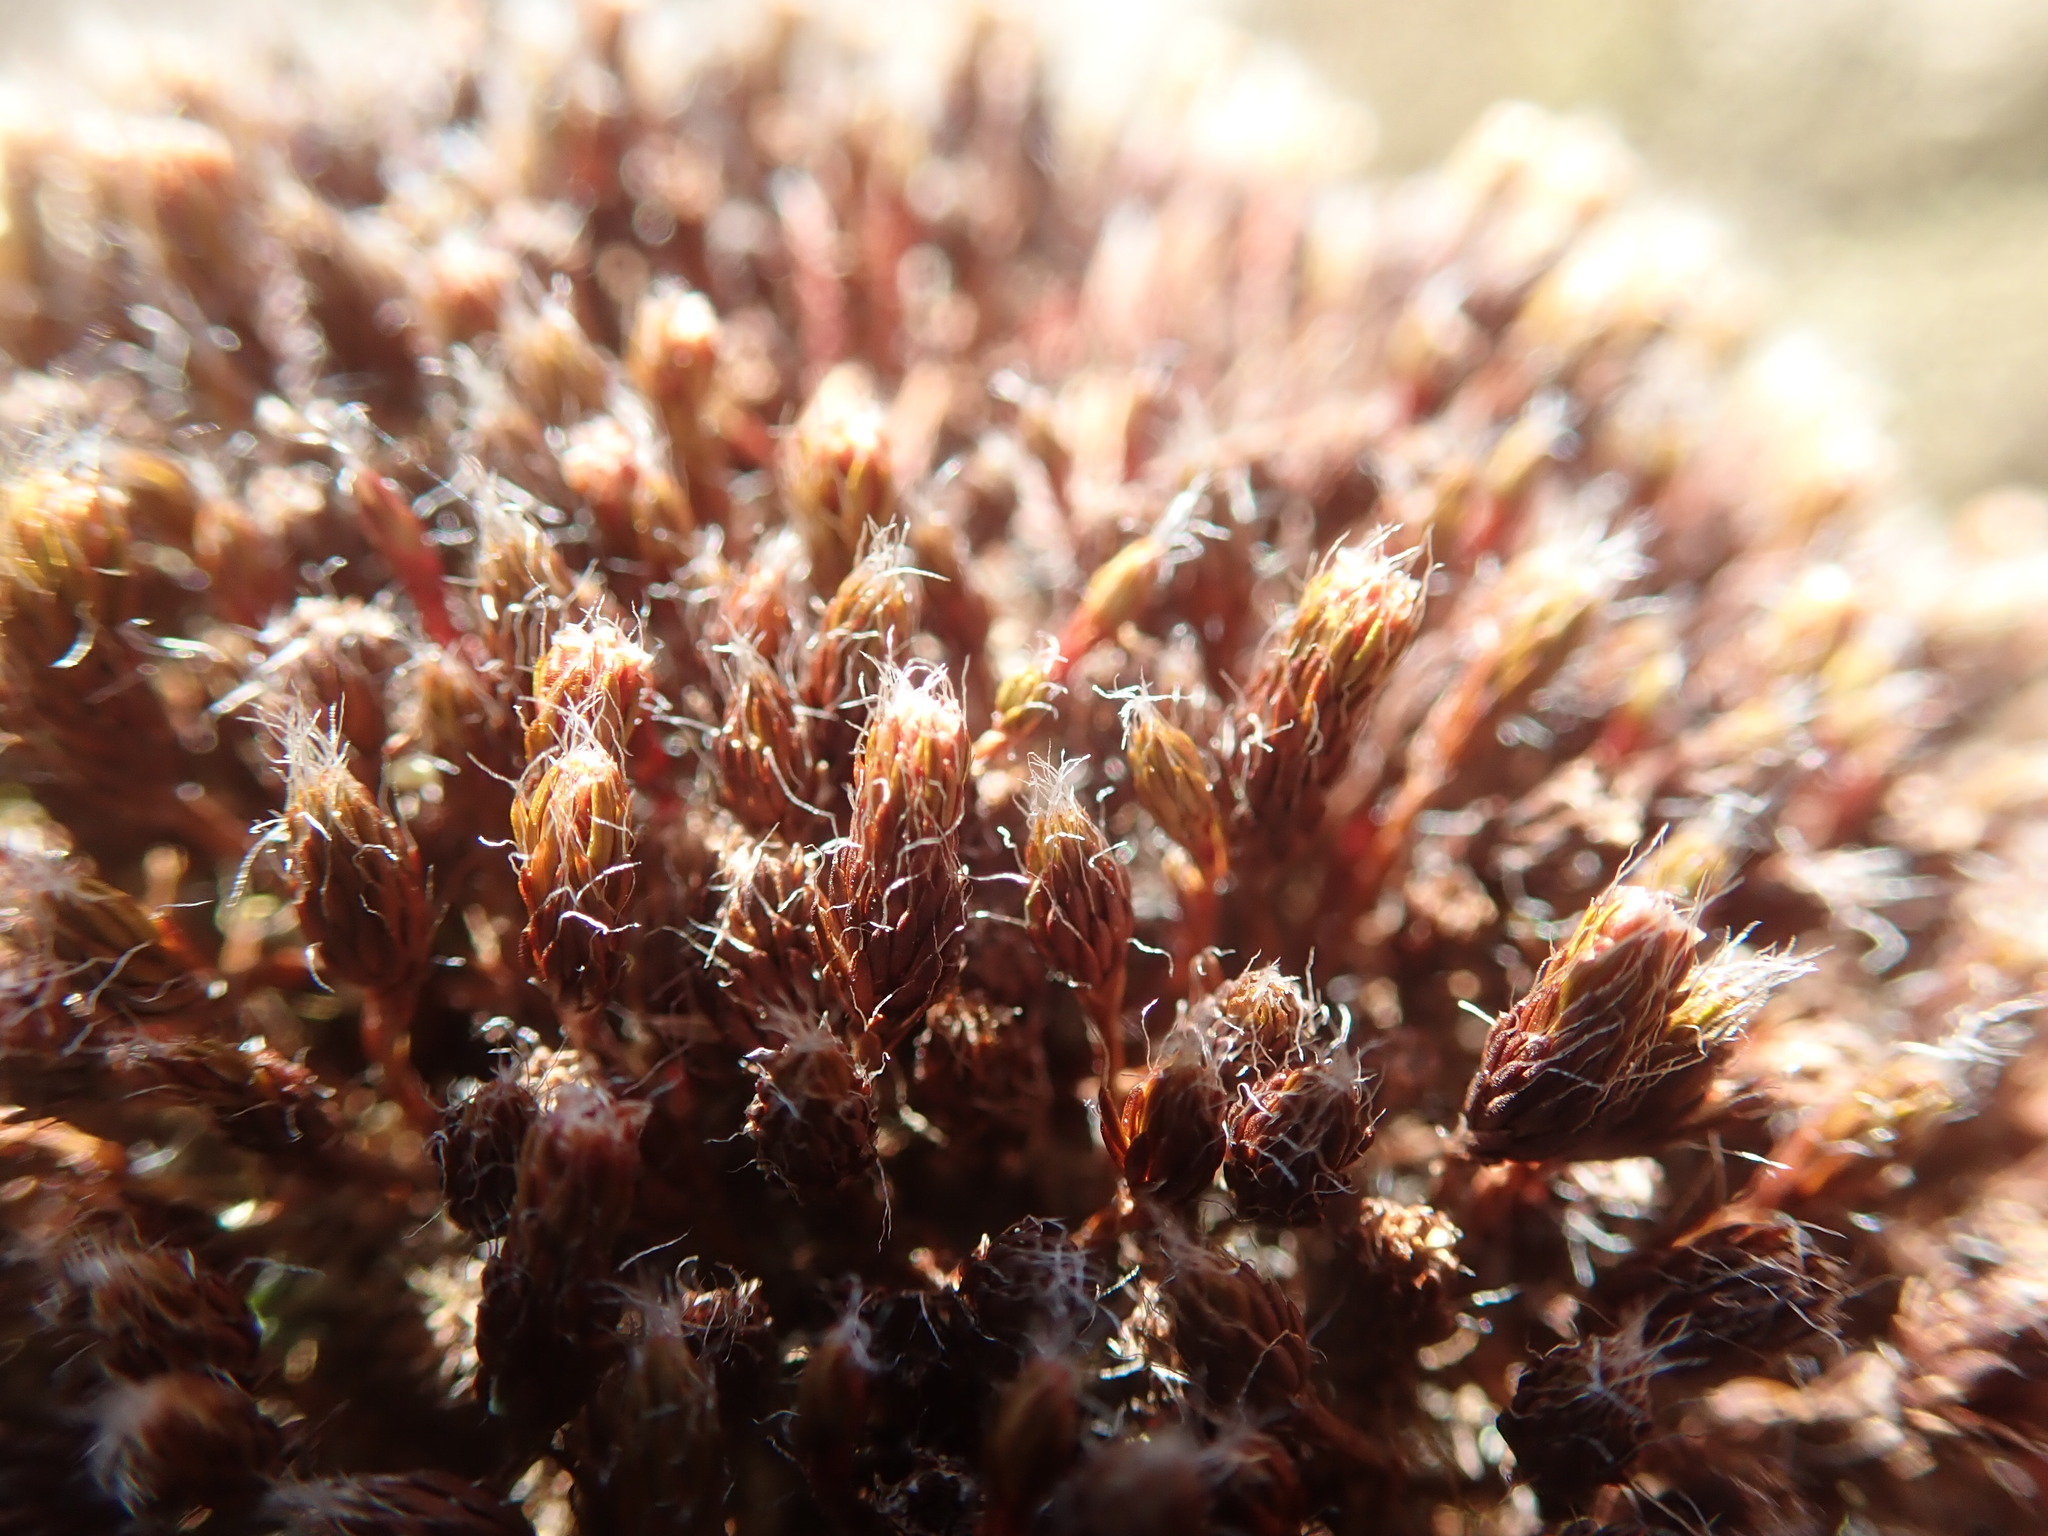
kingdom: Plantae
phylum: Bryophyta
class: Polytrichopsida
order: Polytrichales
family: Polytrichaceae
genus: Polytrichum
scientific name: Polytrichum piliferum
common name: Bristly haircap
